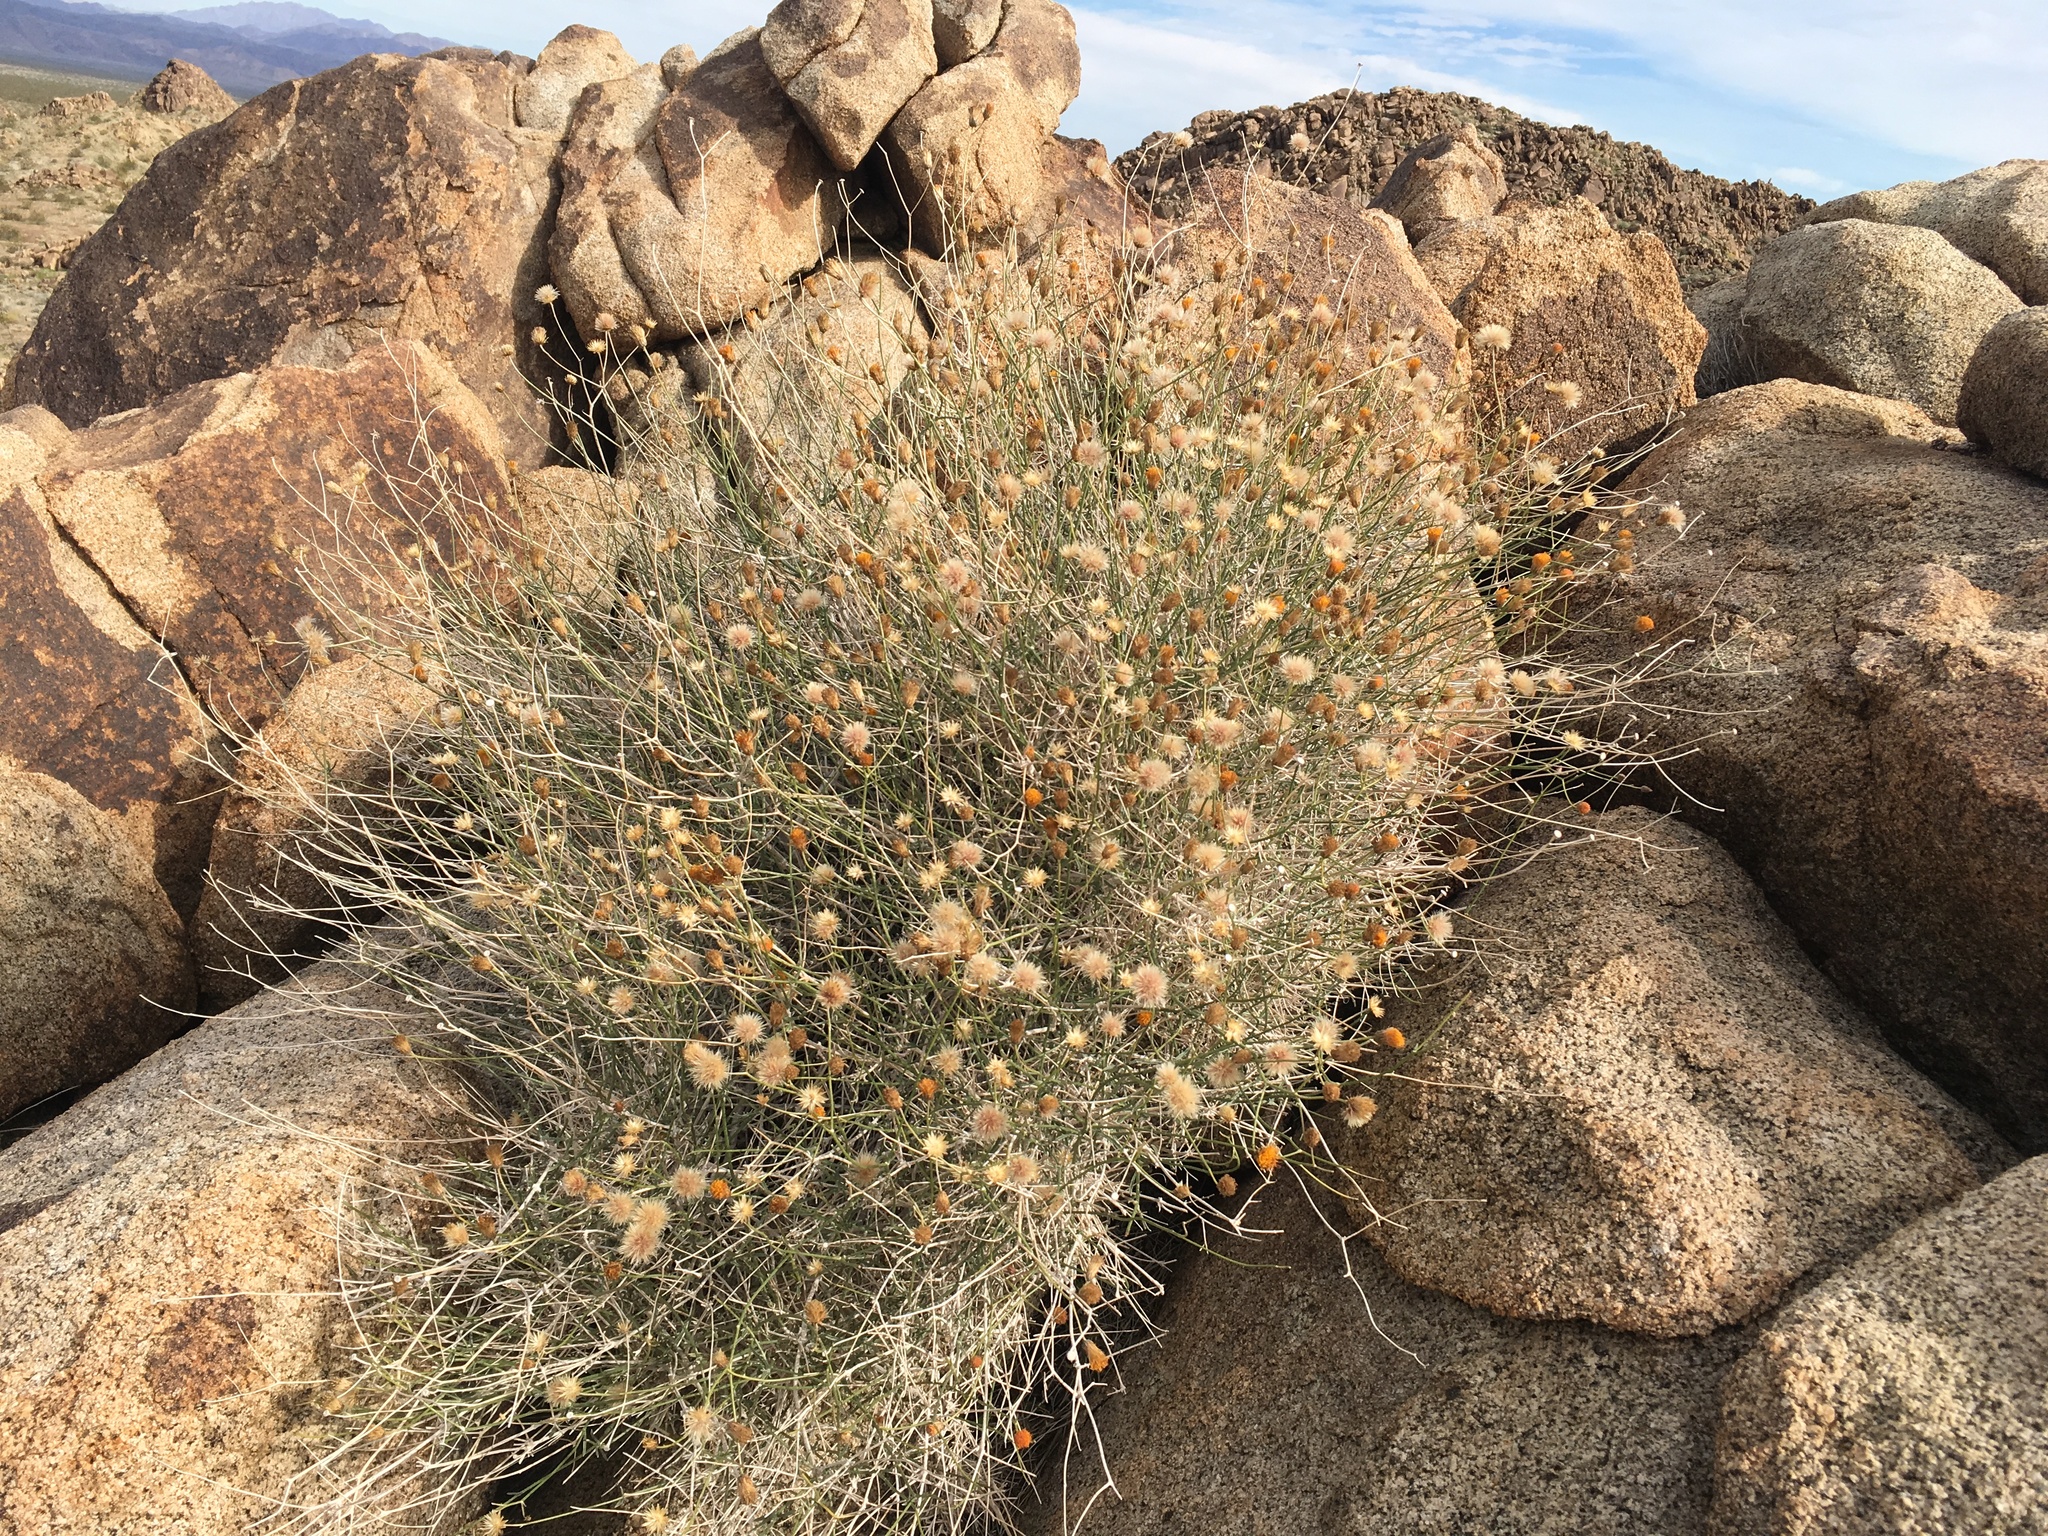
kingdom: Plantae
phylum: Tracheophyta
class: Magnoliopsida
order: Asterales
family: Asteraceae
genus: Bebbia
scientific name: Bebbia juncea
